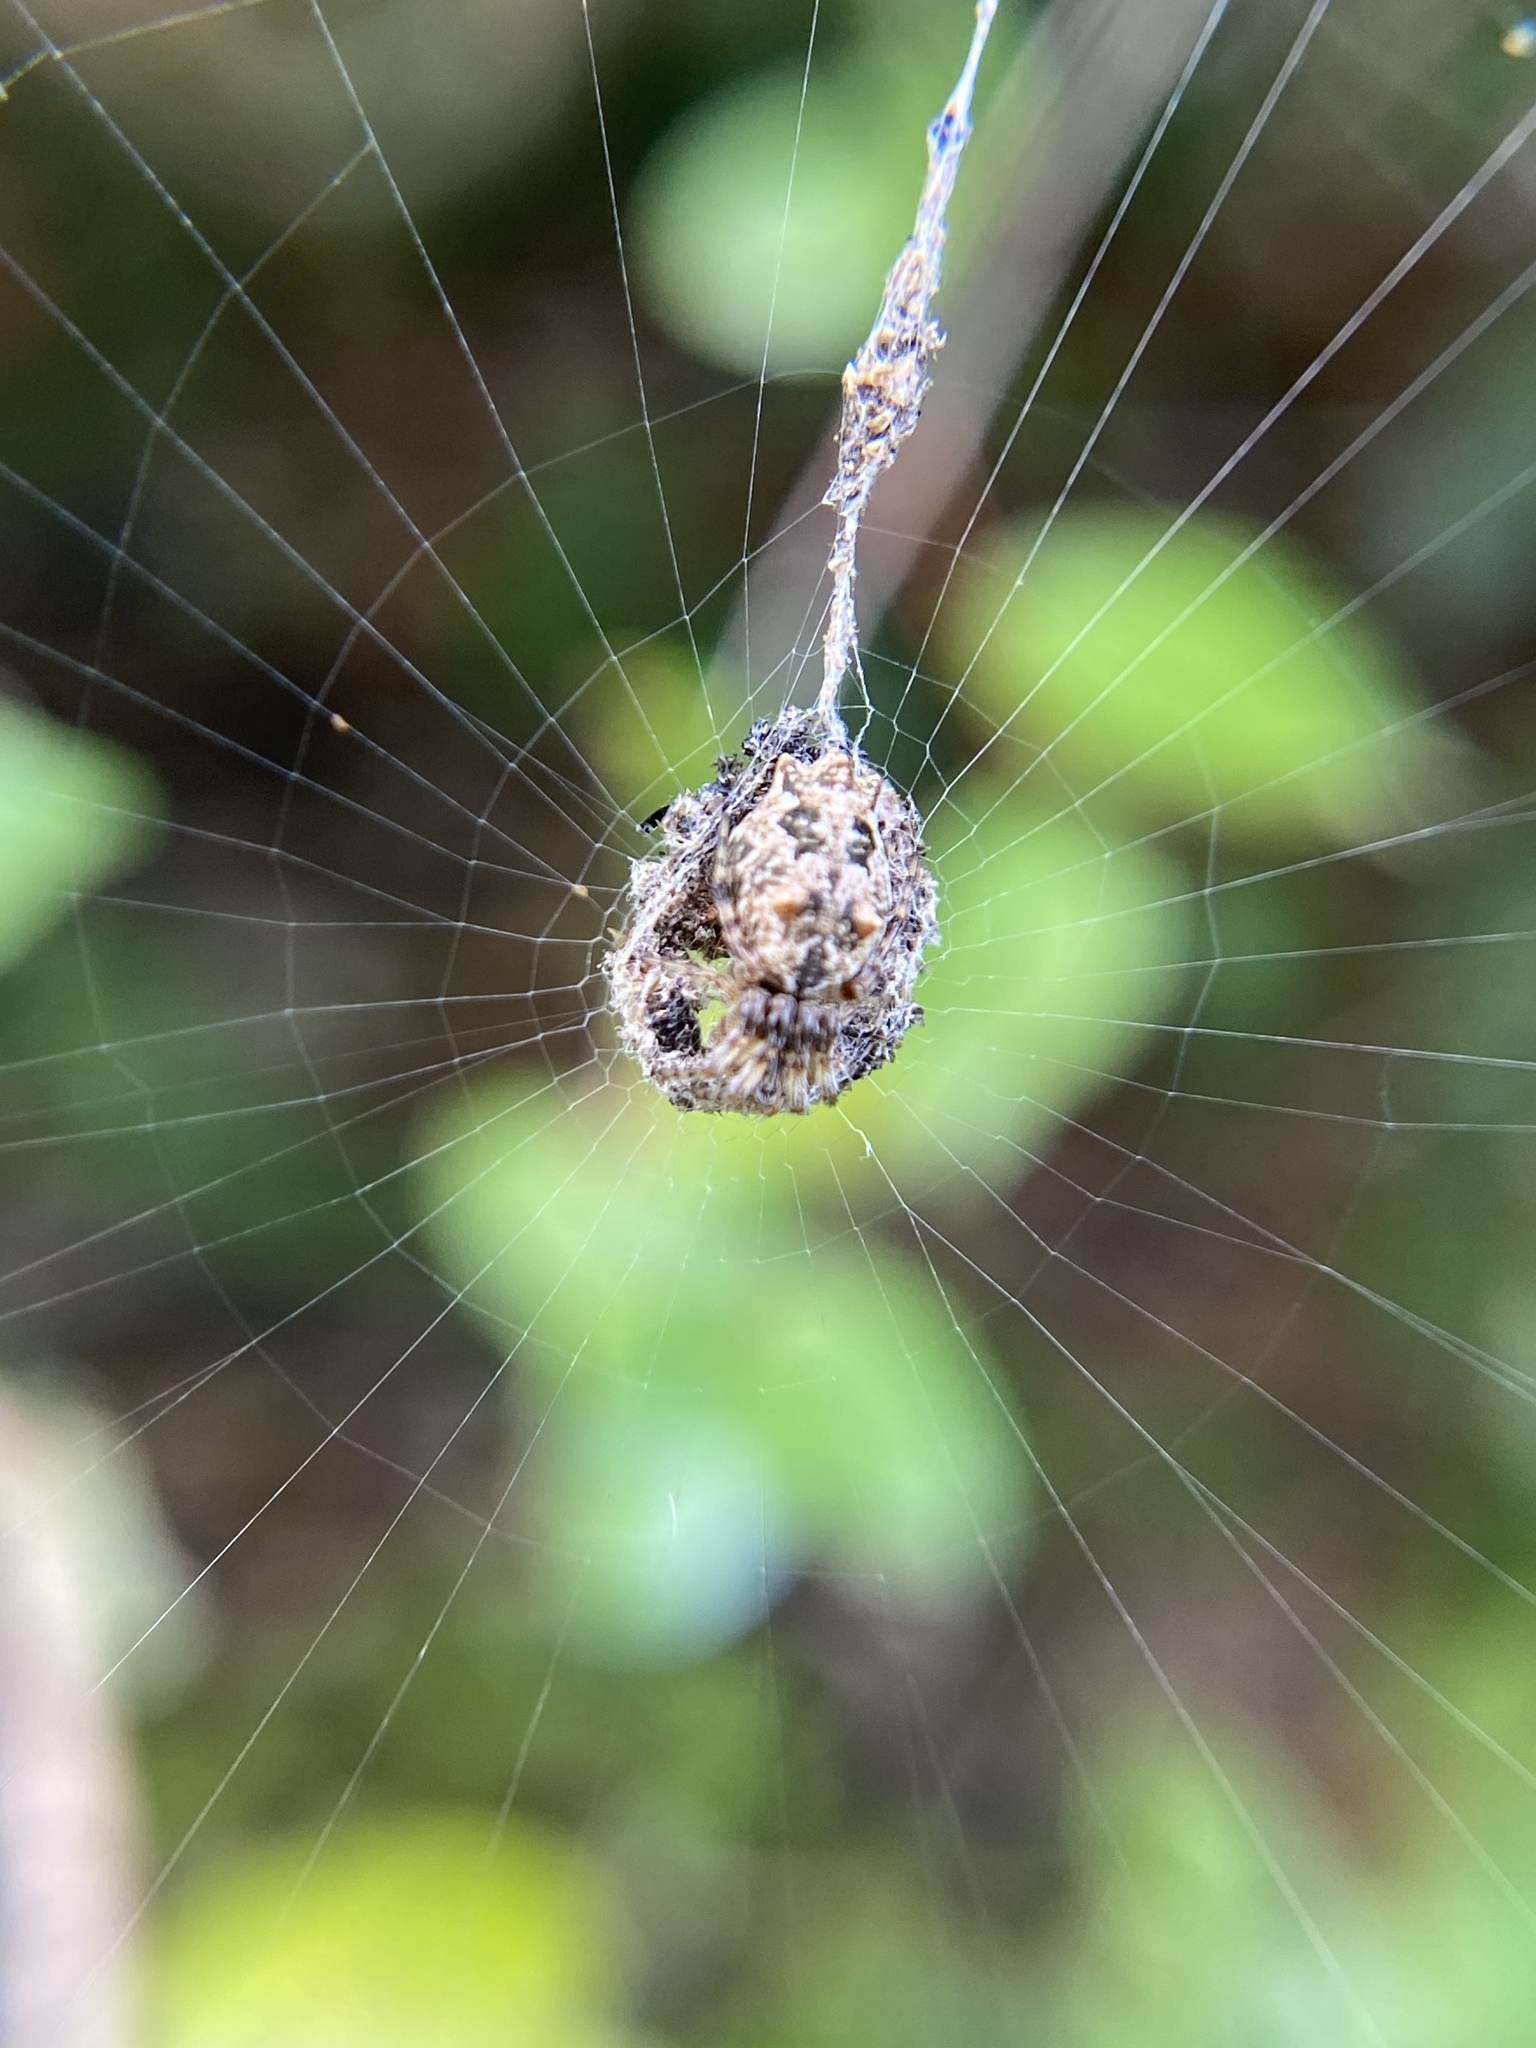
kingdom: Animalia
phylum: Arthropoda
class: Arachnida
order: Araneae
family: Araneidae
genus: Cyclosa
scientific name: Cyclosa walckenaeri
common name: Orb weavers
